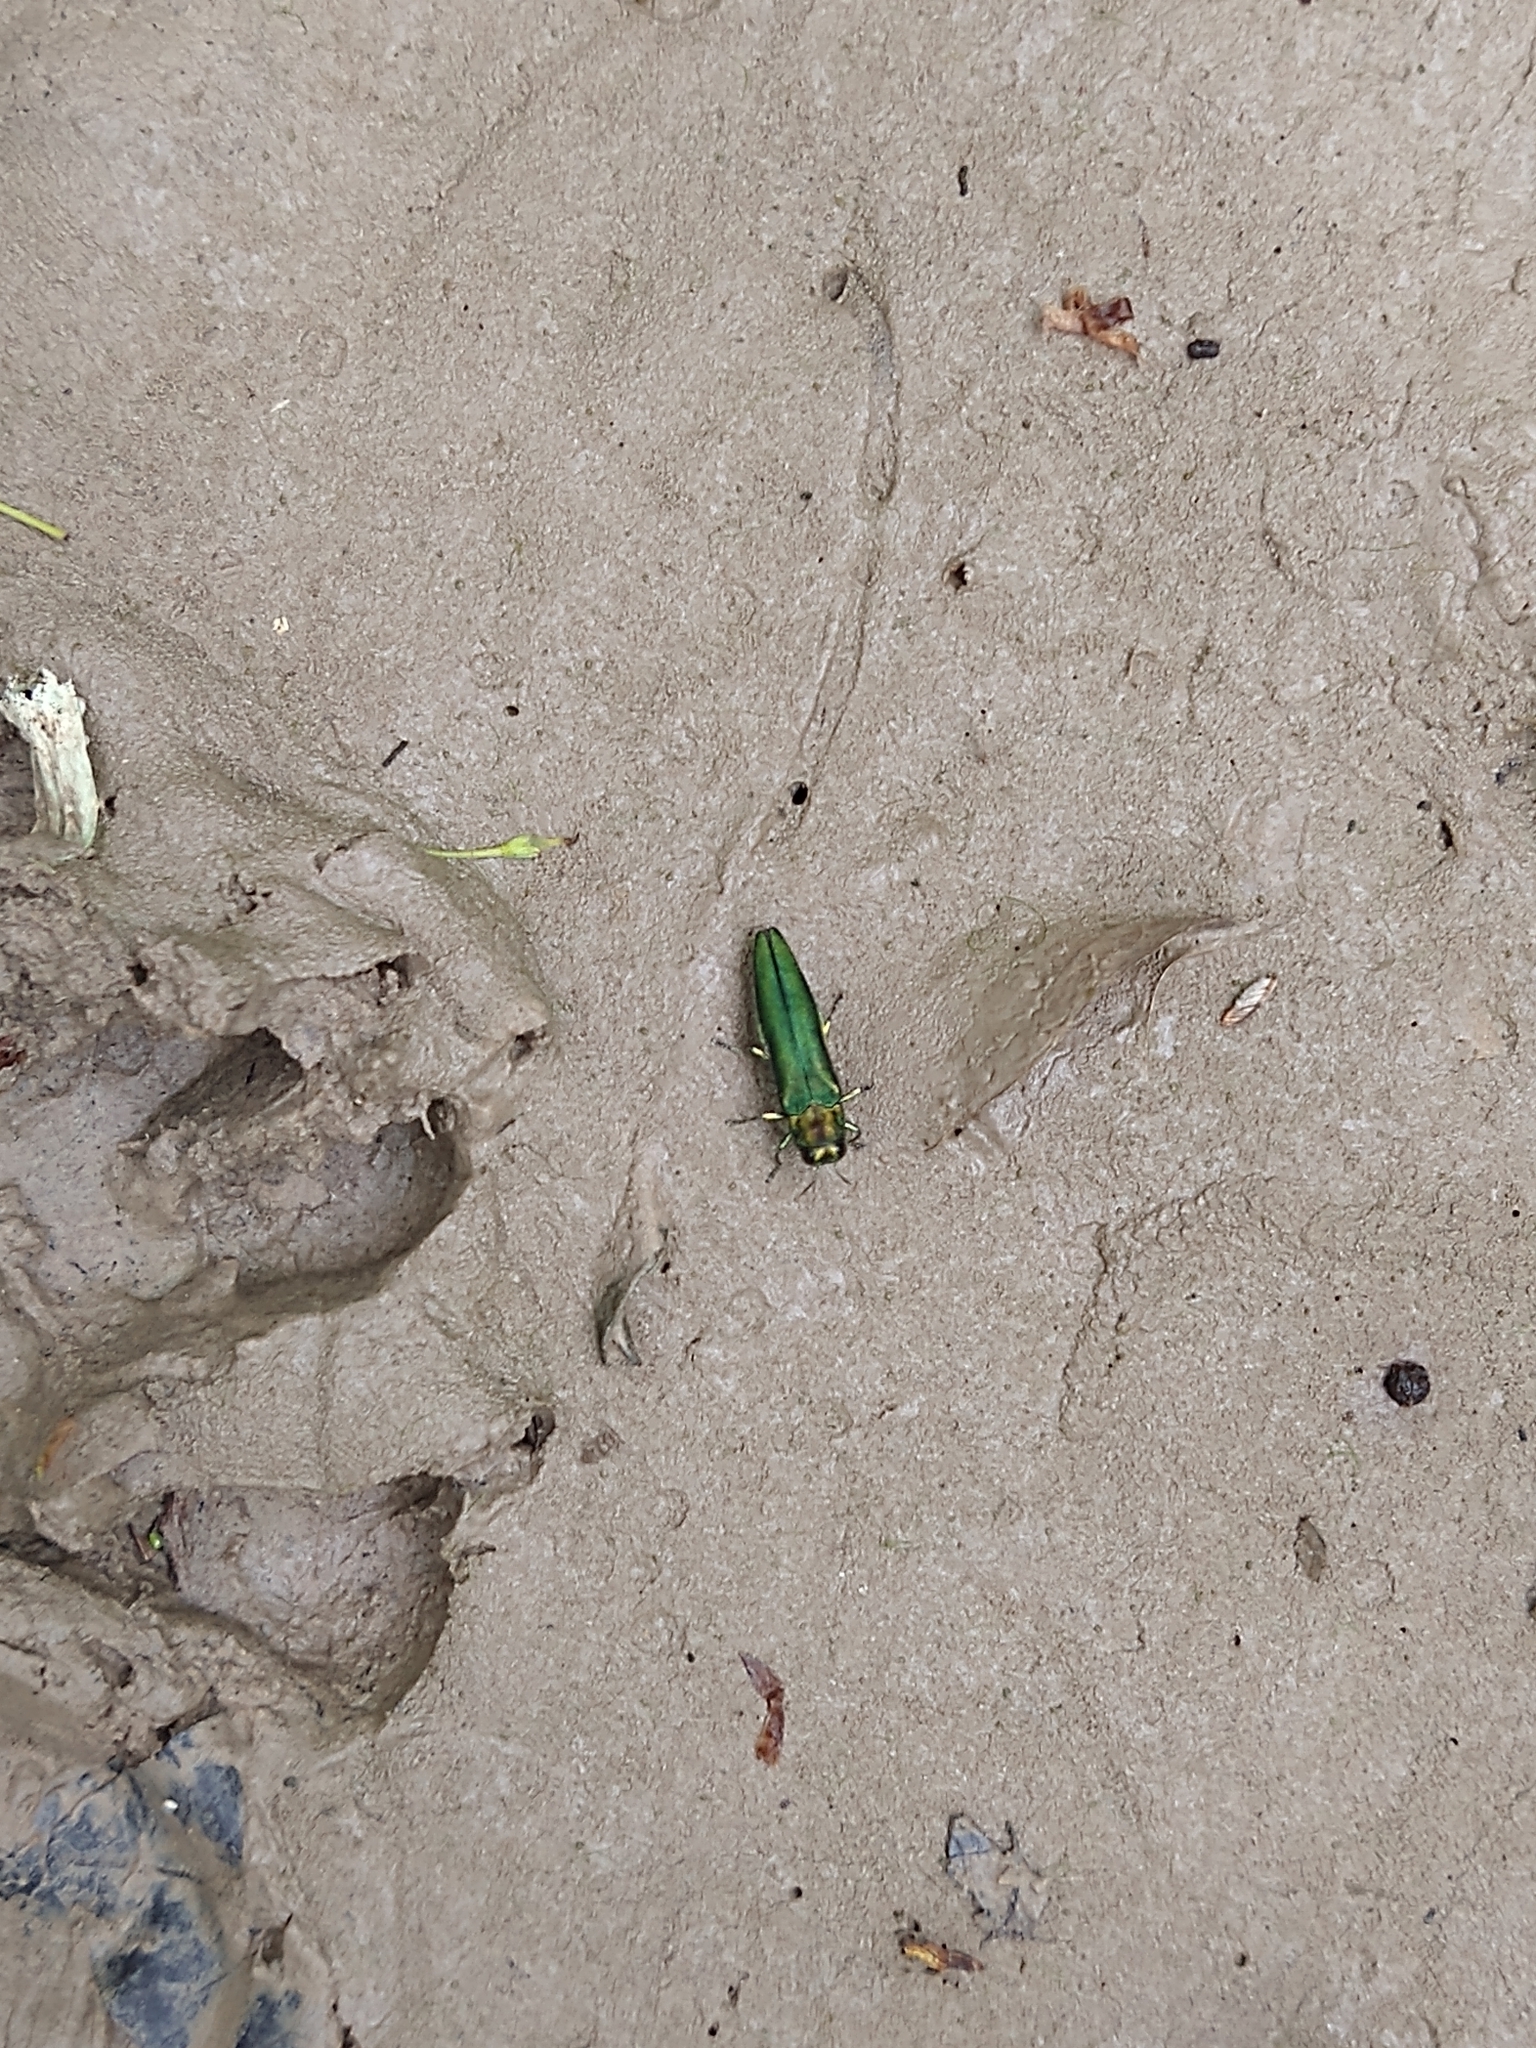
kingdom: Animalia
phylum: Arthropoda
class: Insecta
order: Coleoptera
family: Buprestidae
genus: Agrilus
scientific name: Agrilus planipennis
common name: Emerald ash borer
